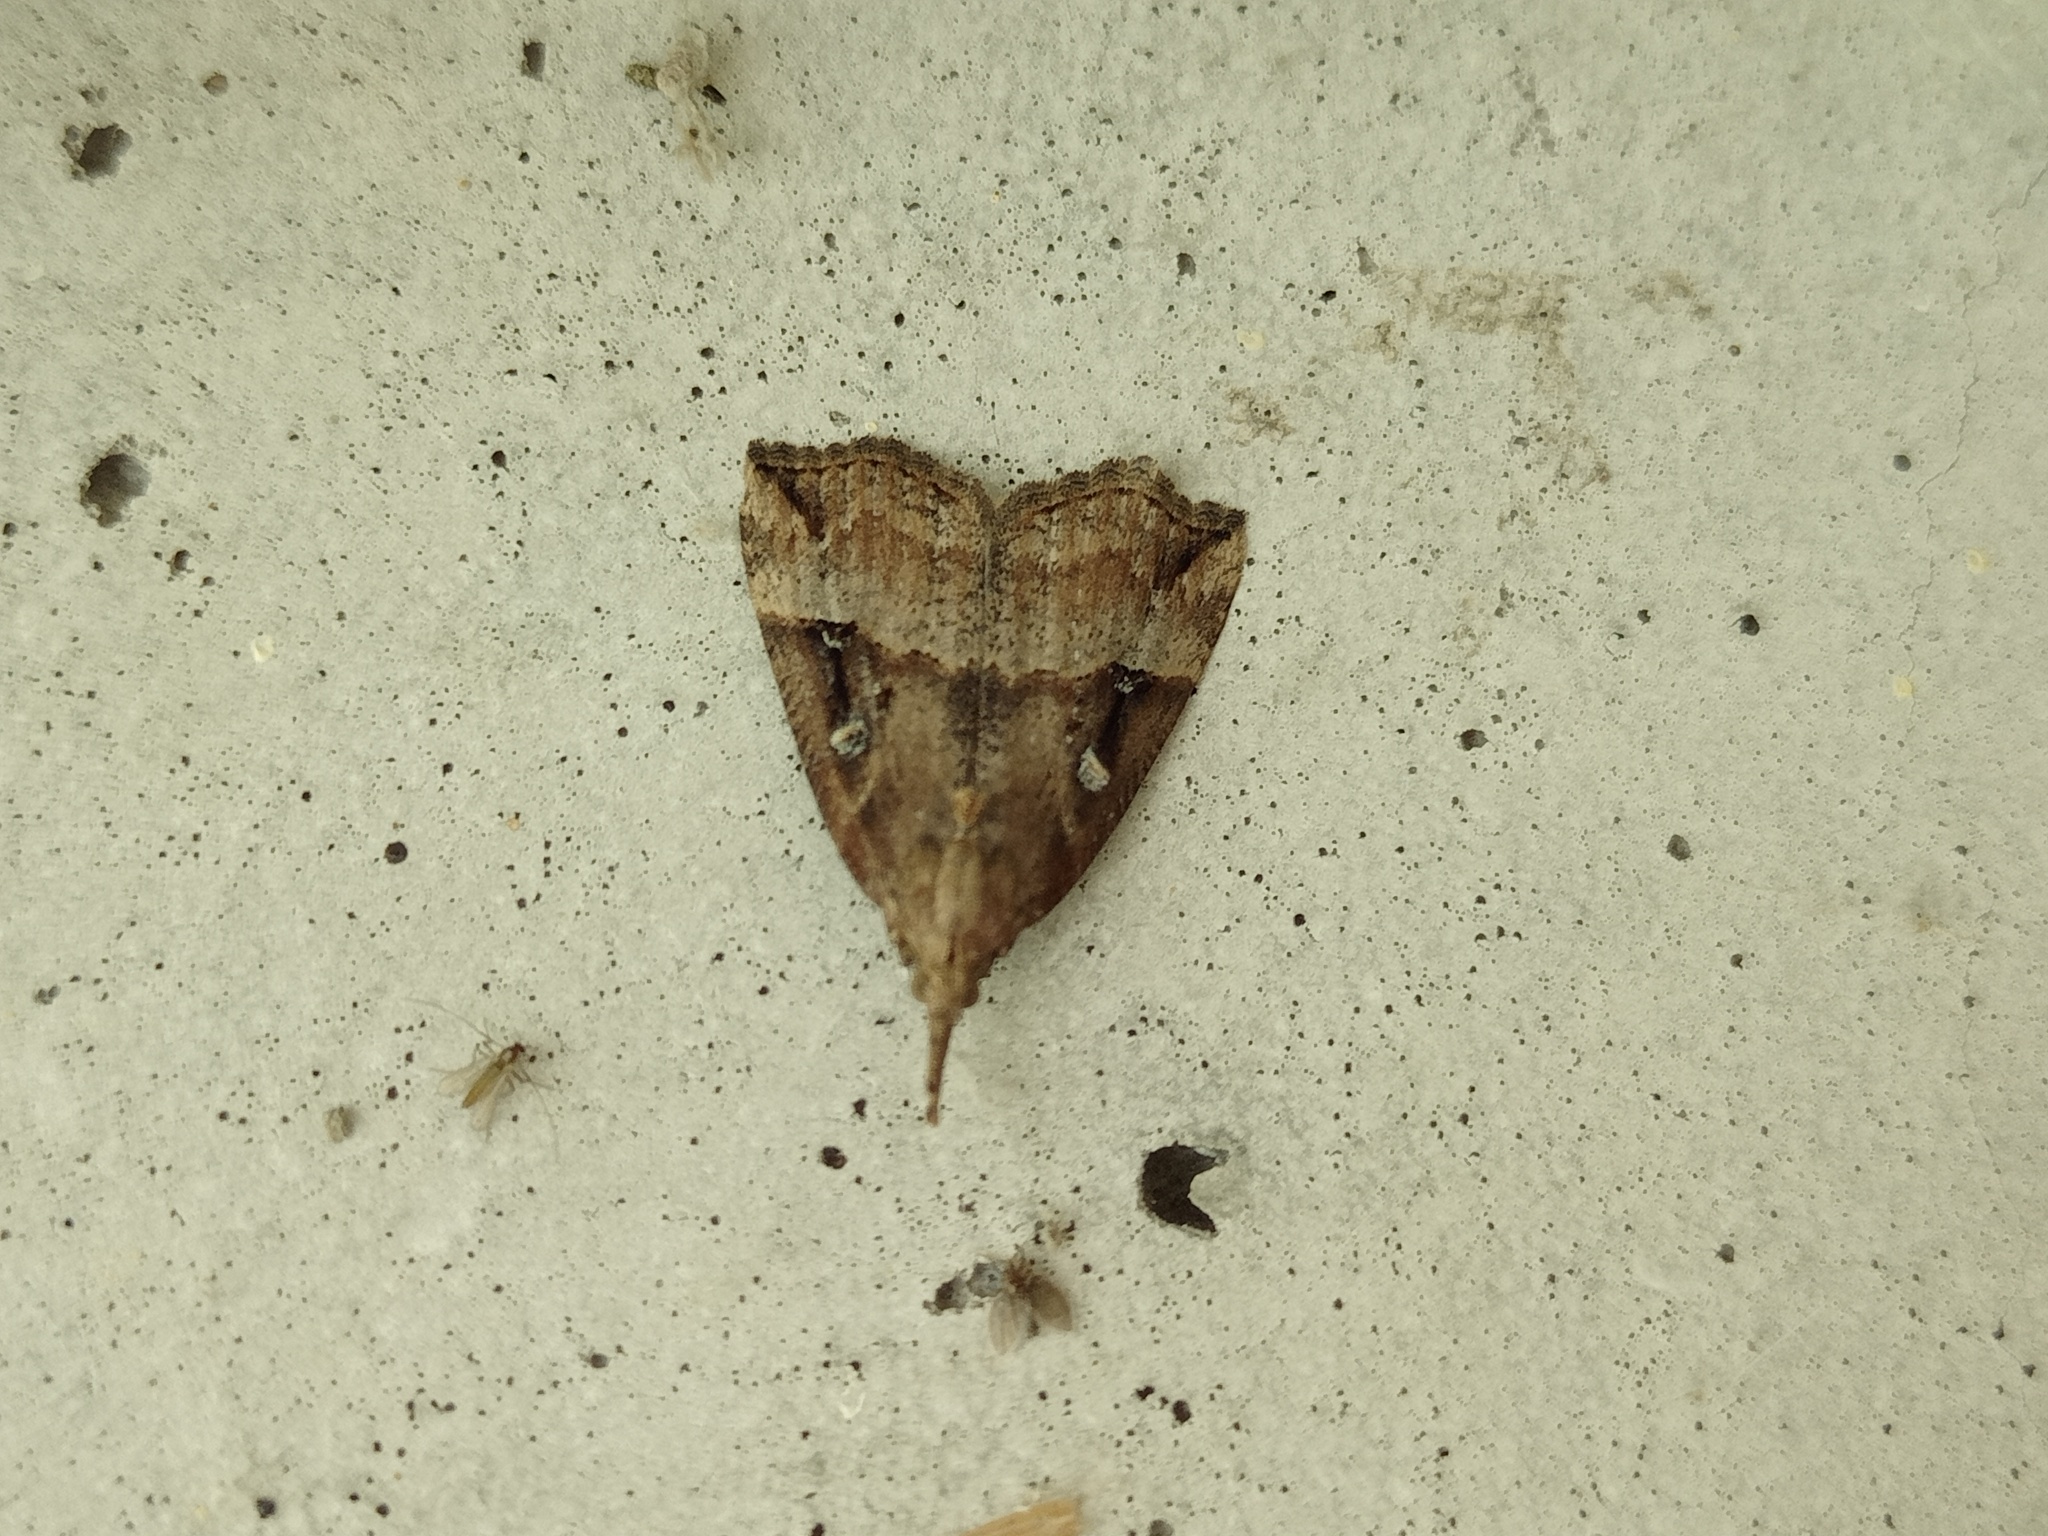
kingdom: Animalia
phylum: Arthropoda
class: Insecta
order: Lepidoptera
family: Erebidae
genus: Hypena
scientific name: Hypena rostralis
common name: Buttoned snout
